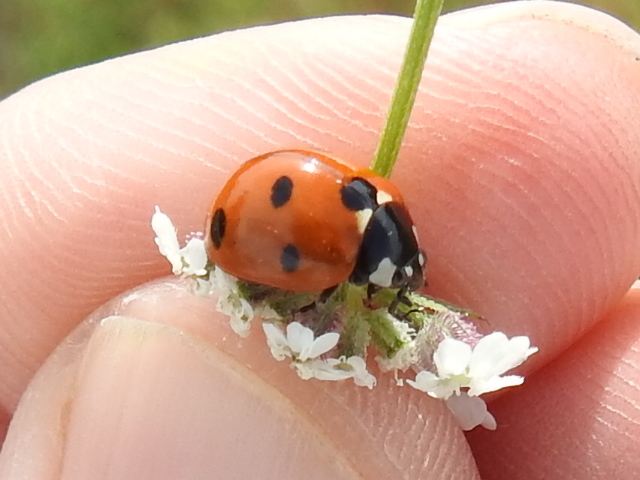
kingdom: Animalia
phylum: Arthropoda
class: Insecta
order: Coleoptera
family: Coccinellidae
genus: Coccinella
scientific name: Coccinella septempunctata
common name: Sevenspotted lady beetle
